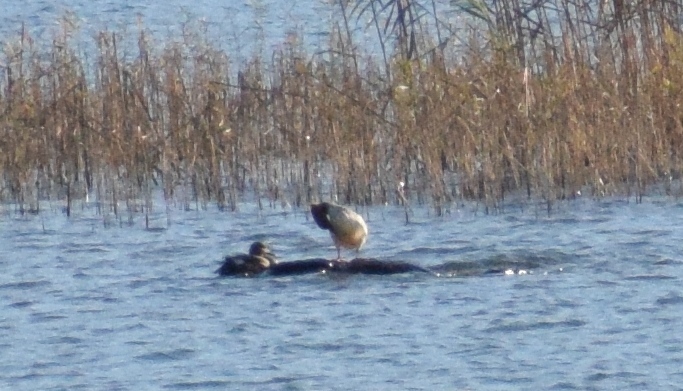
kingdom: Animalia
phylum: Chordata
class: Aves
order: Anseriformes
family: Anatidae
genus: Mergus
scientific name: Mergus merganser
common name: Common merganser
